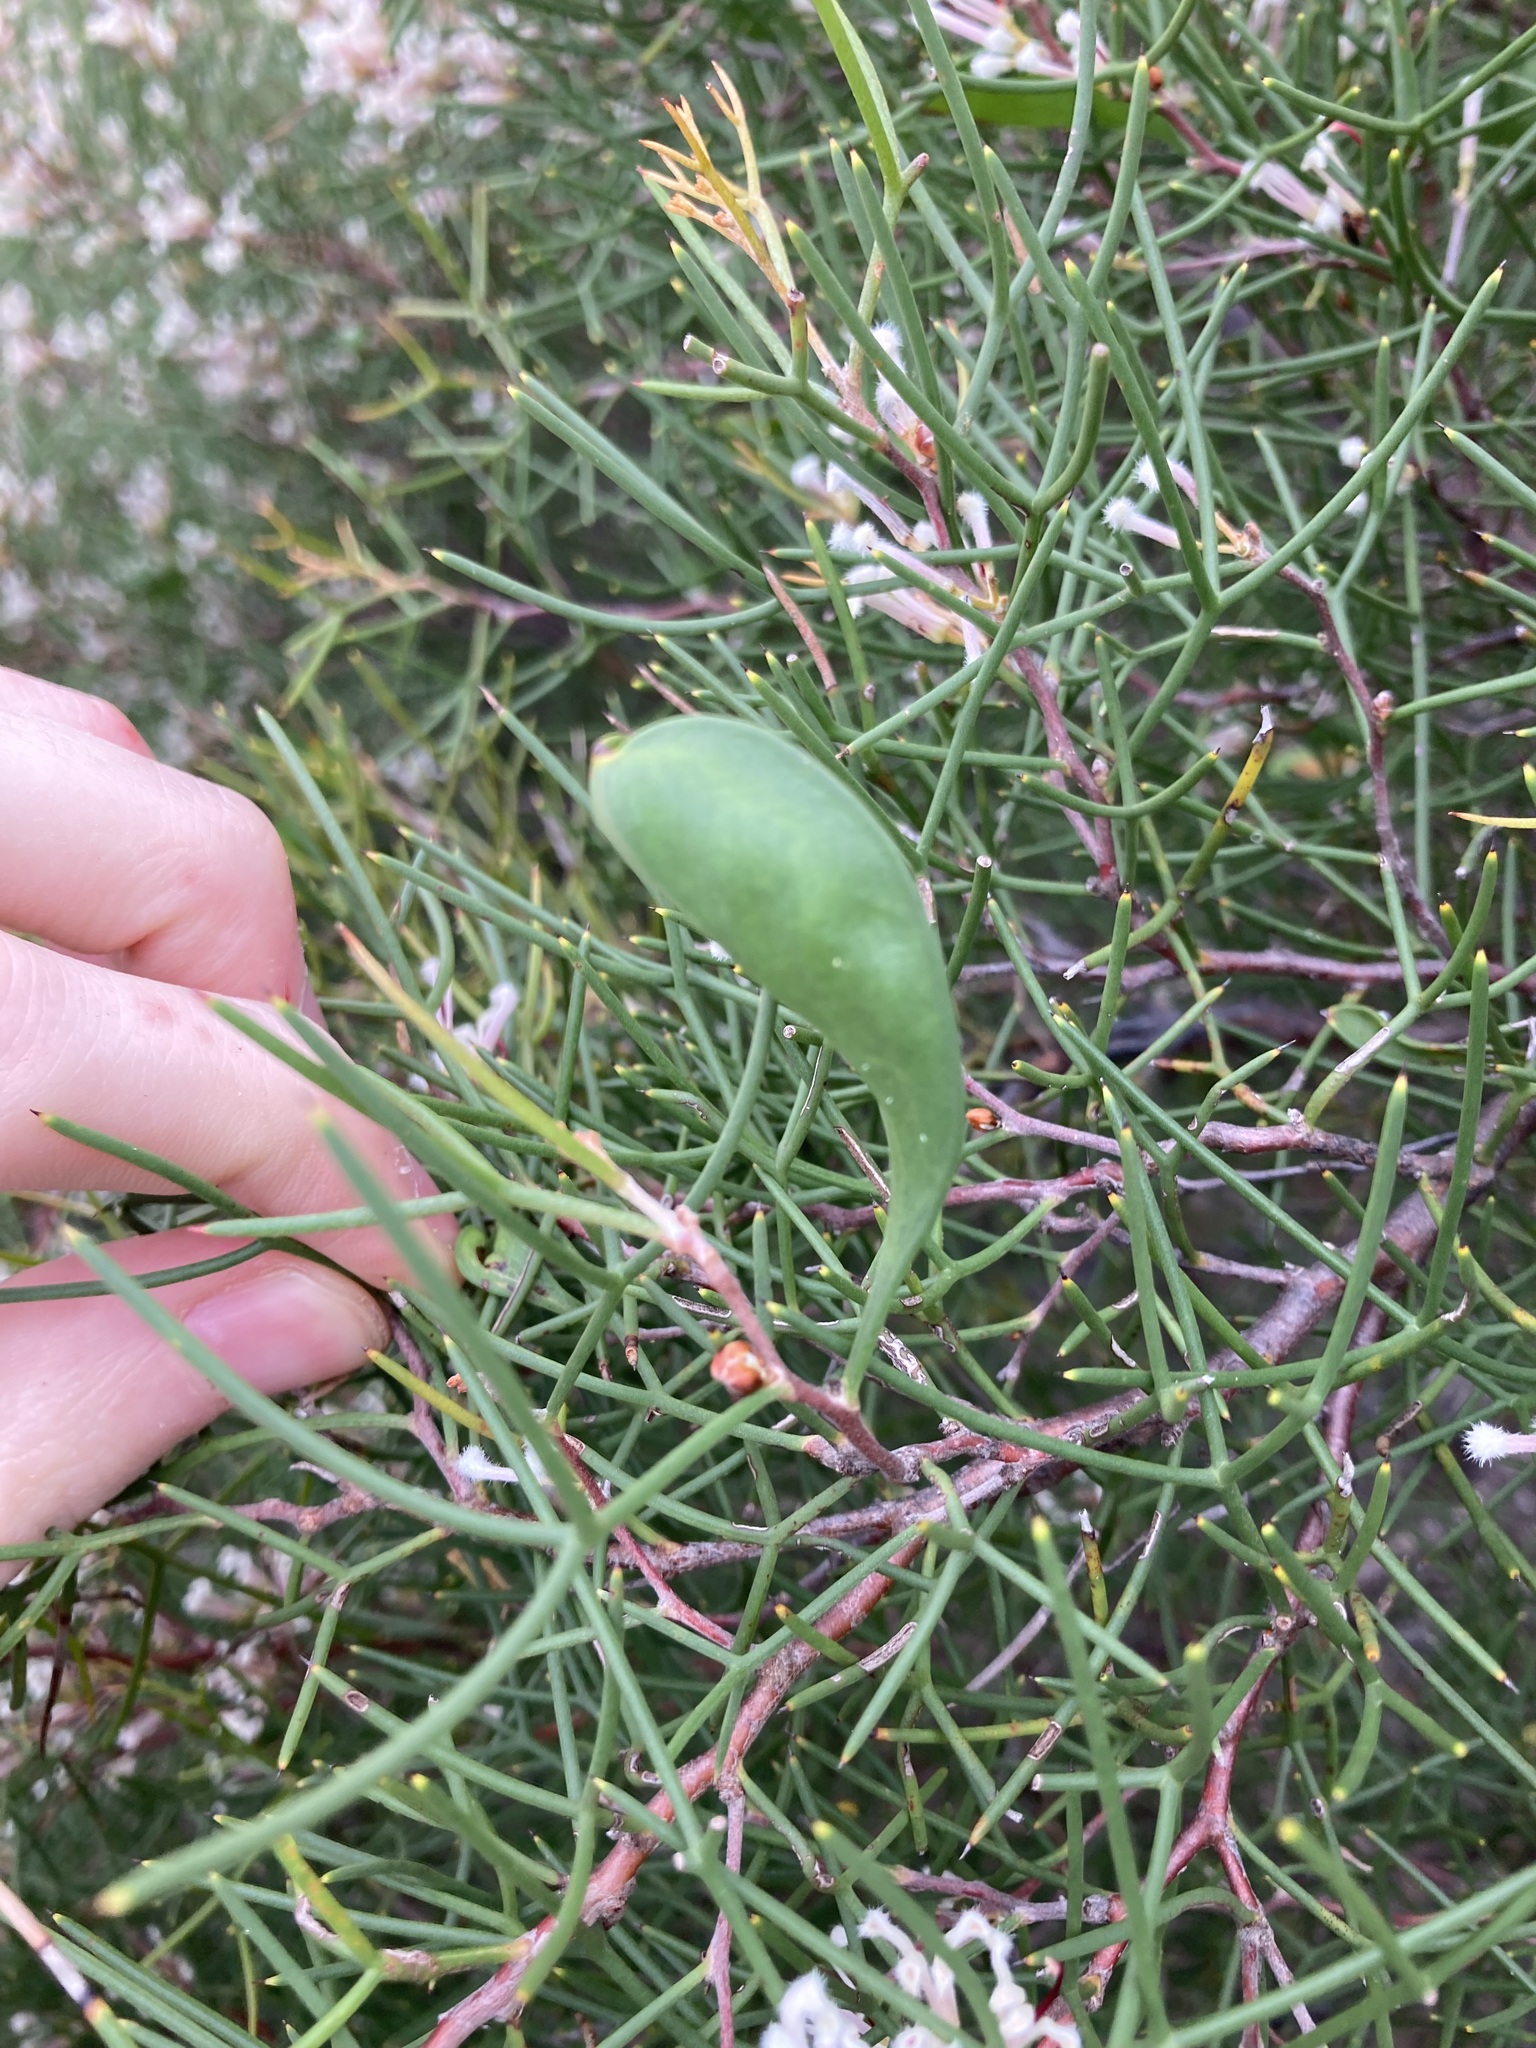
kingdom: Plantae
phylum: Tracheophyta
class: Magnoliopsida
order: Proteales
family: Proteaceae
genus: Hakea
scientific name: Hakea trifurcata
